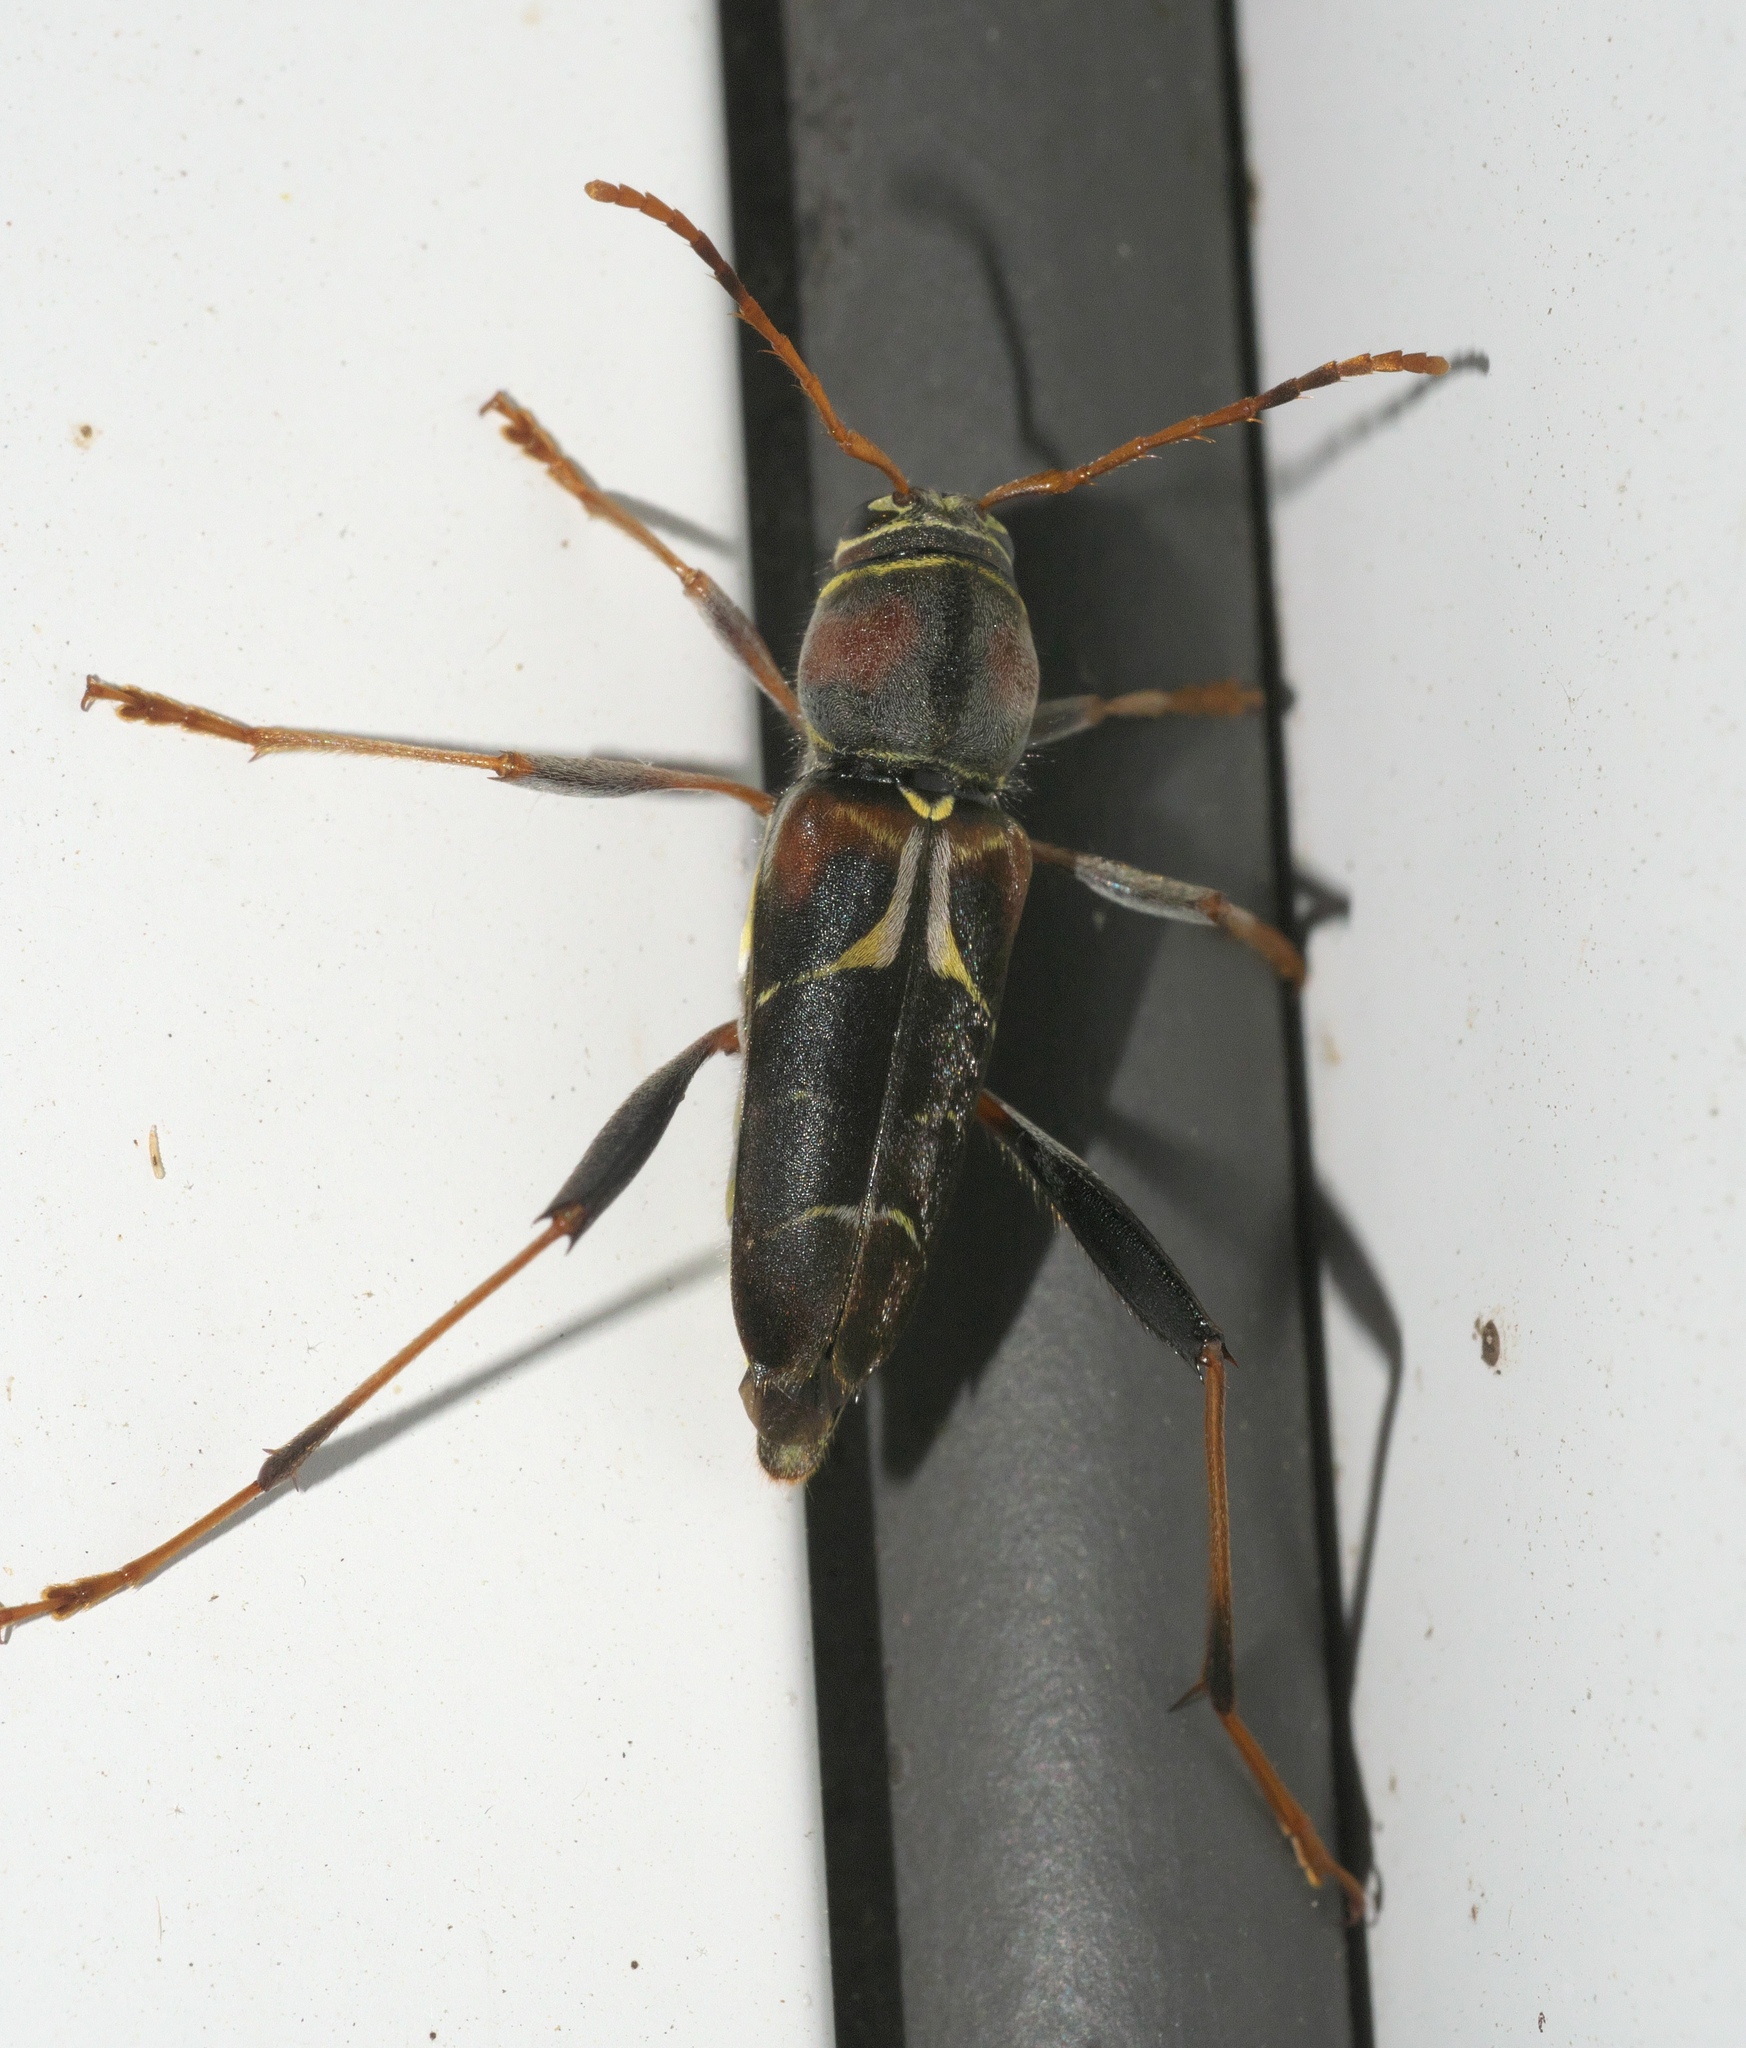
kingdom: Animalia
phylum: Arthropoda
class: Insecta
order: Coleoptera
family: Cerambycidae
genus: Neoclytus
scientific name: Neoclytus mucronatus
